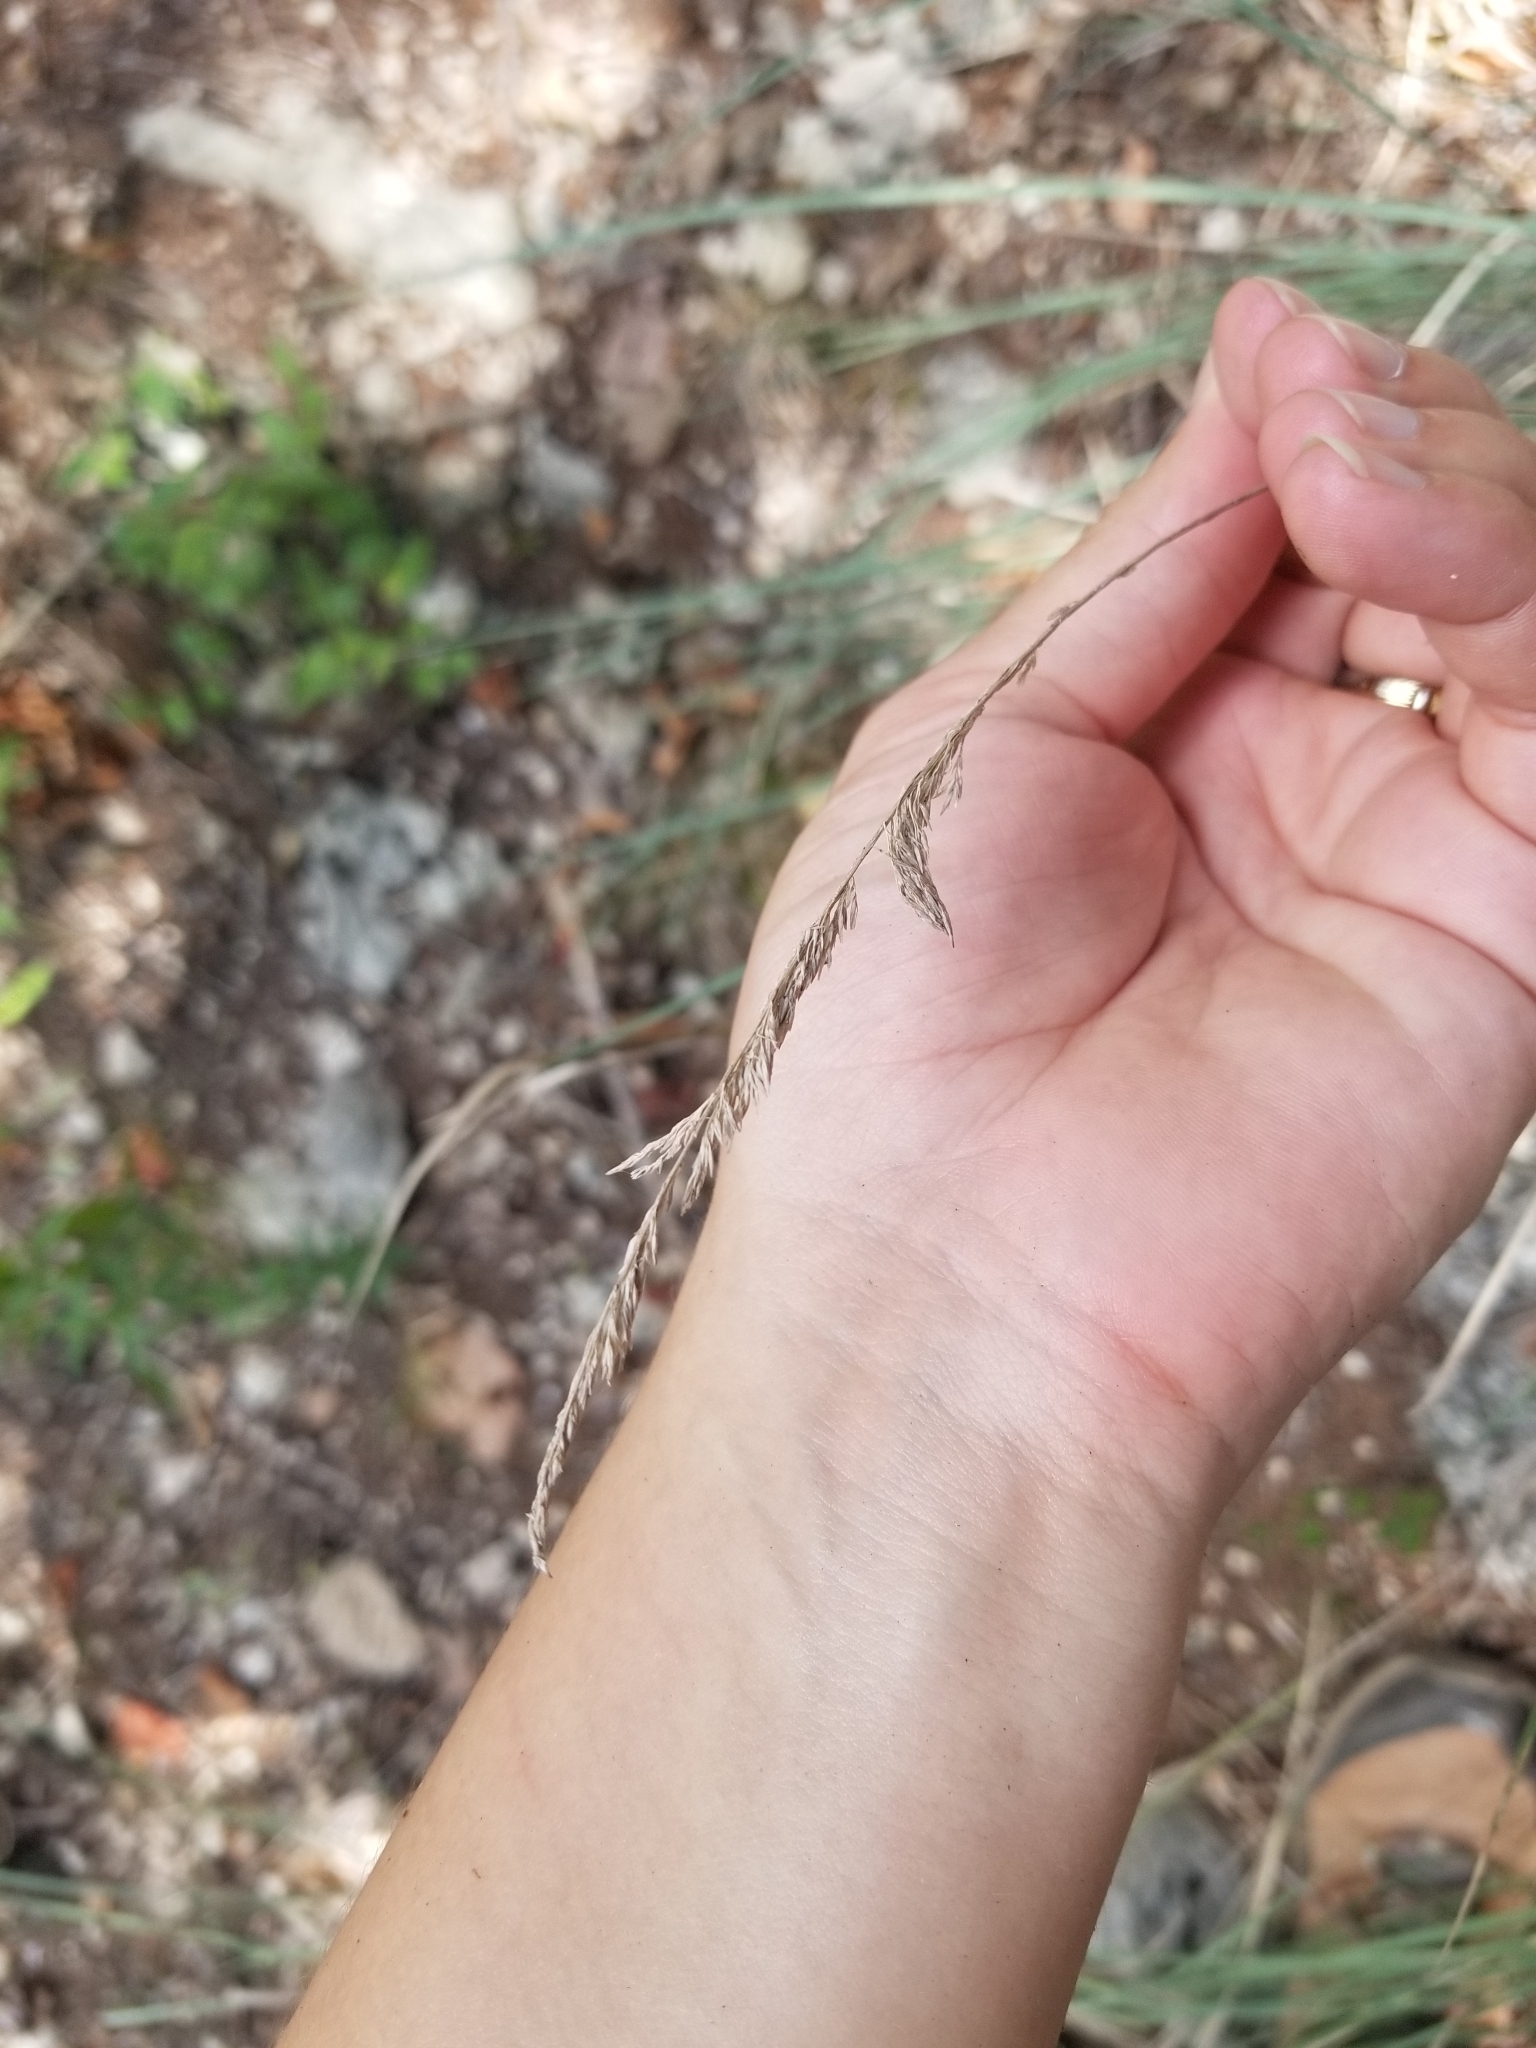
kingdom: Plantae
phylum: Tracheophyta
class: Liliopsida
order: Poales
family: Poaceae
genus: Muhlenbergia
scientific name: Muhlenbergia lindheimeri
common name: Lindheimer's muhly
